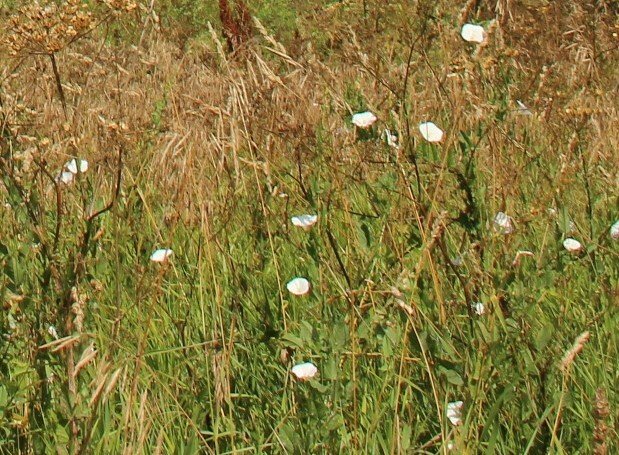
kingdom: Plantae
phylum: Tracheophyta
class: Magnoliopsida
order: Solanales
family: Convolvulaceae
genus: Convolvulus
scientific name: Convolvulus arvensis
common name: Field bindweed
